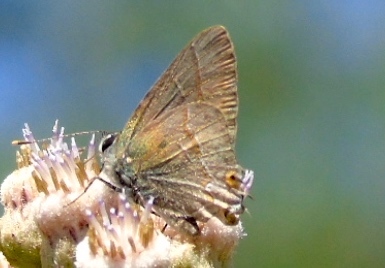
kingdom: Animalia
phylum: Arthropoda
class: Insecta
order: Lepidoptera
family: Lycaenidae
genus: Electrostrymon
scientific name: Electrostrymon
